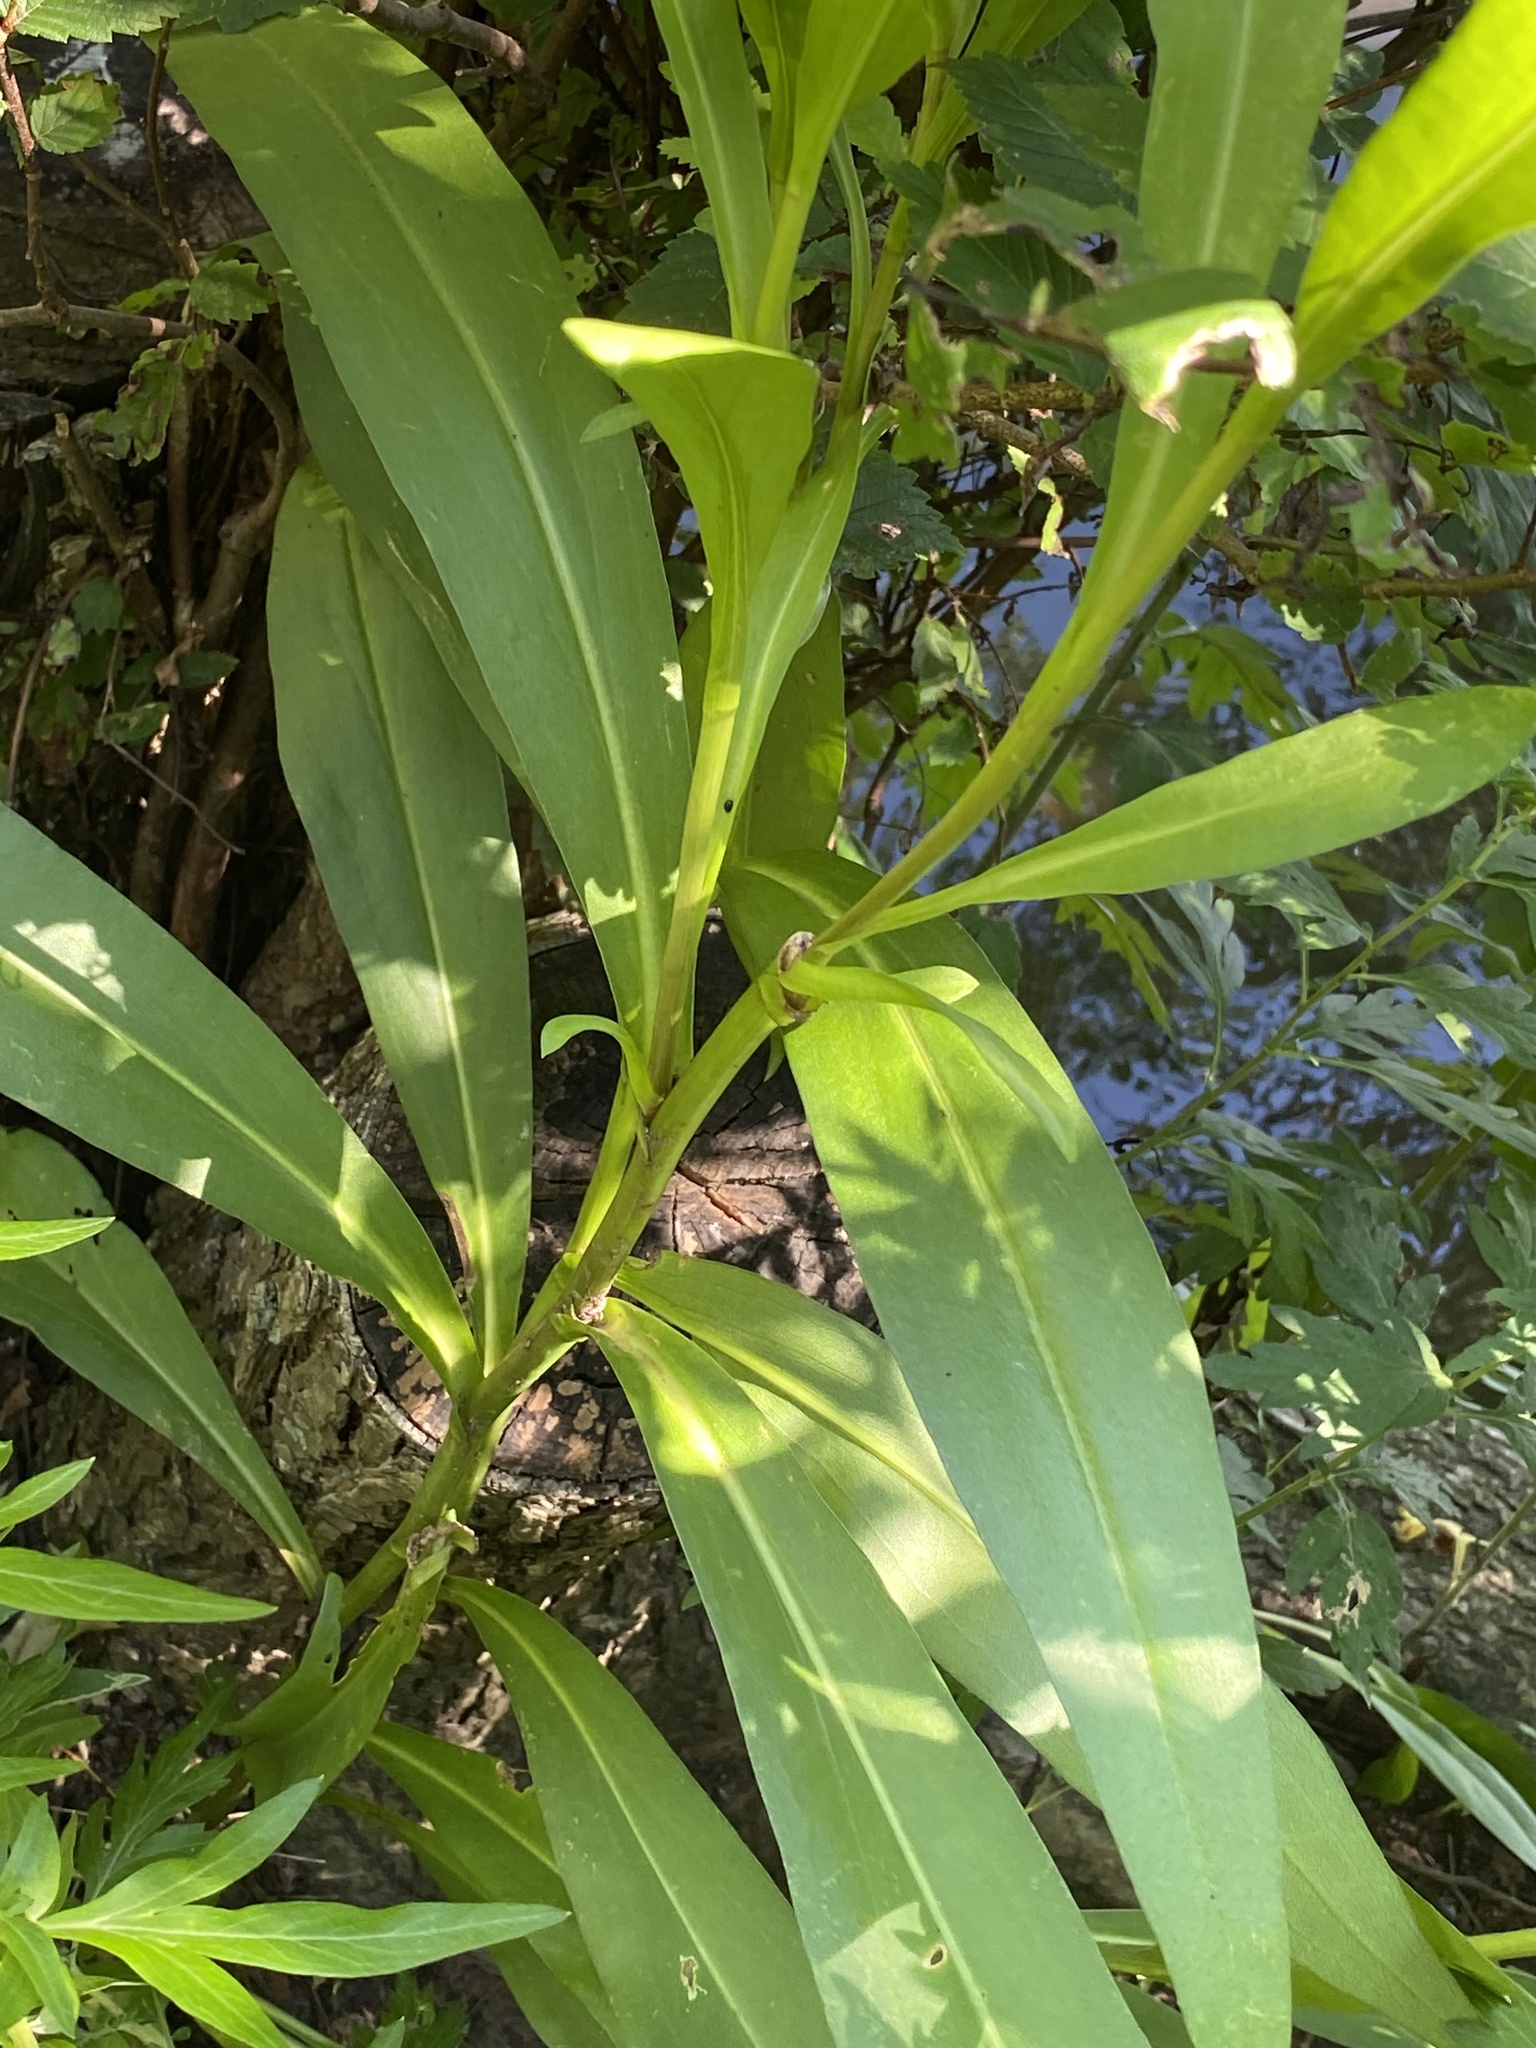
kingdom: Plantae
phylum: Tracheophyta
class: Magnoliopsida
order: Asterales
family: Asteraceae
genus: Solidago
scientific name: Solidago sempervirens
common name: Salt-marsh goldenrod
